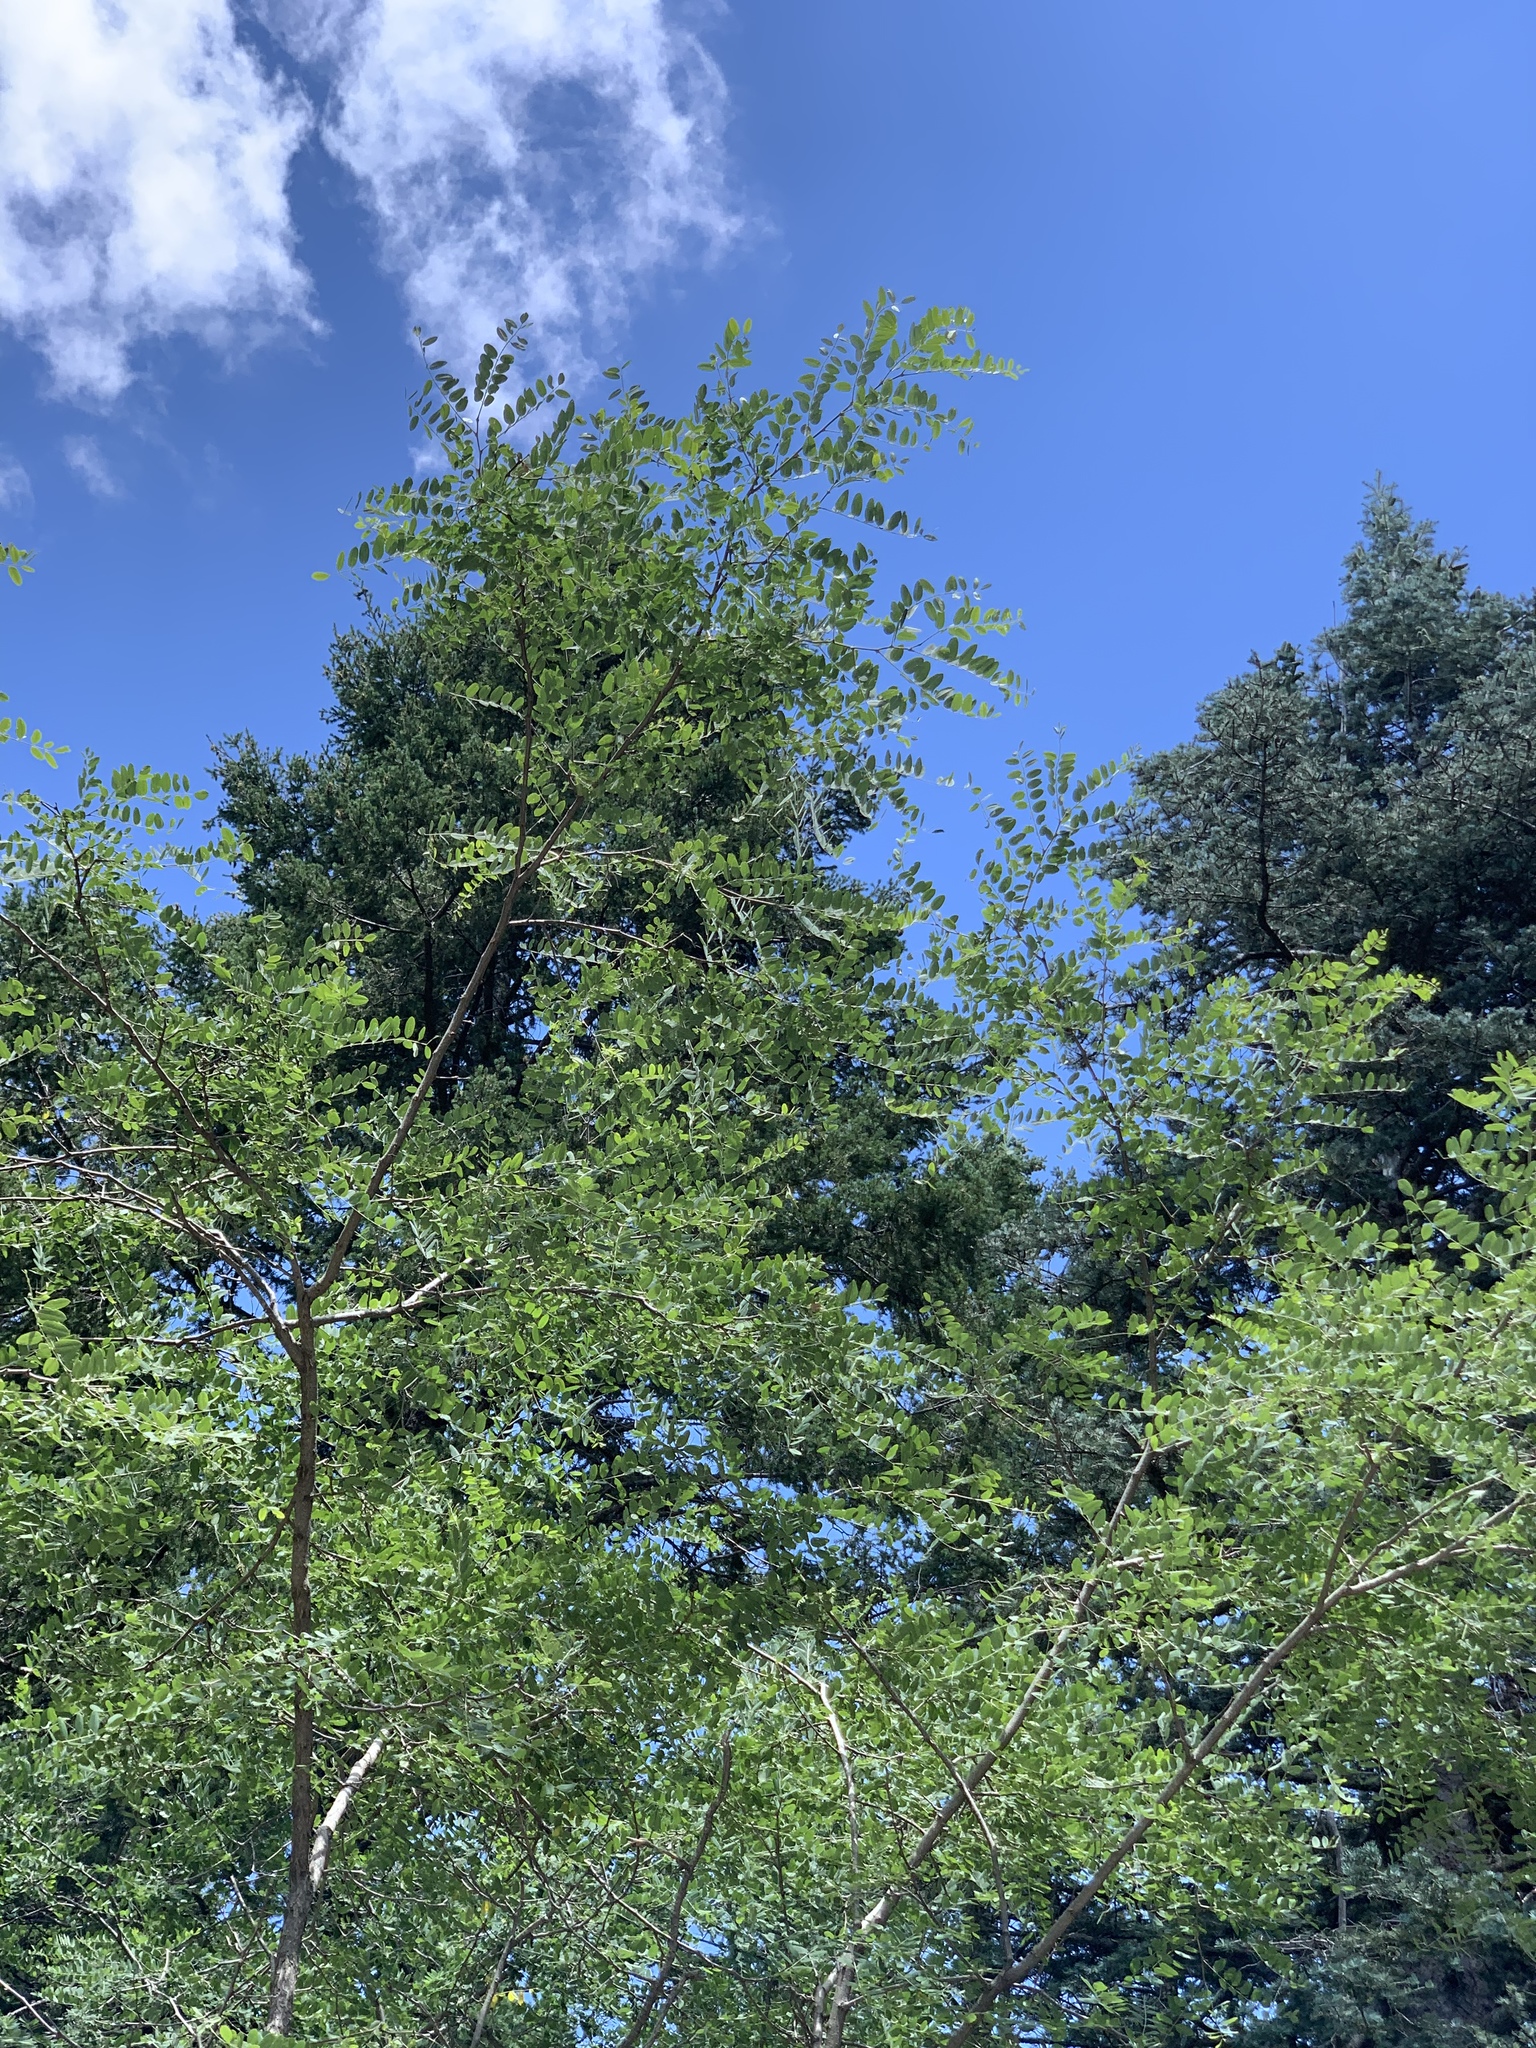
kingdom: Plantae
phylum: Tracheophyta
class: Magnoliopsida
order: Fabales
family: Fabaceae
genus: Robinia
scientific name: Robinia neomexicana
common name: New mexico locust
